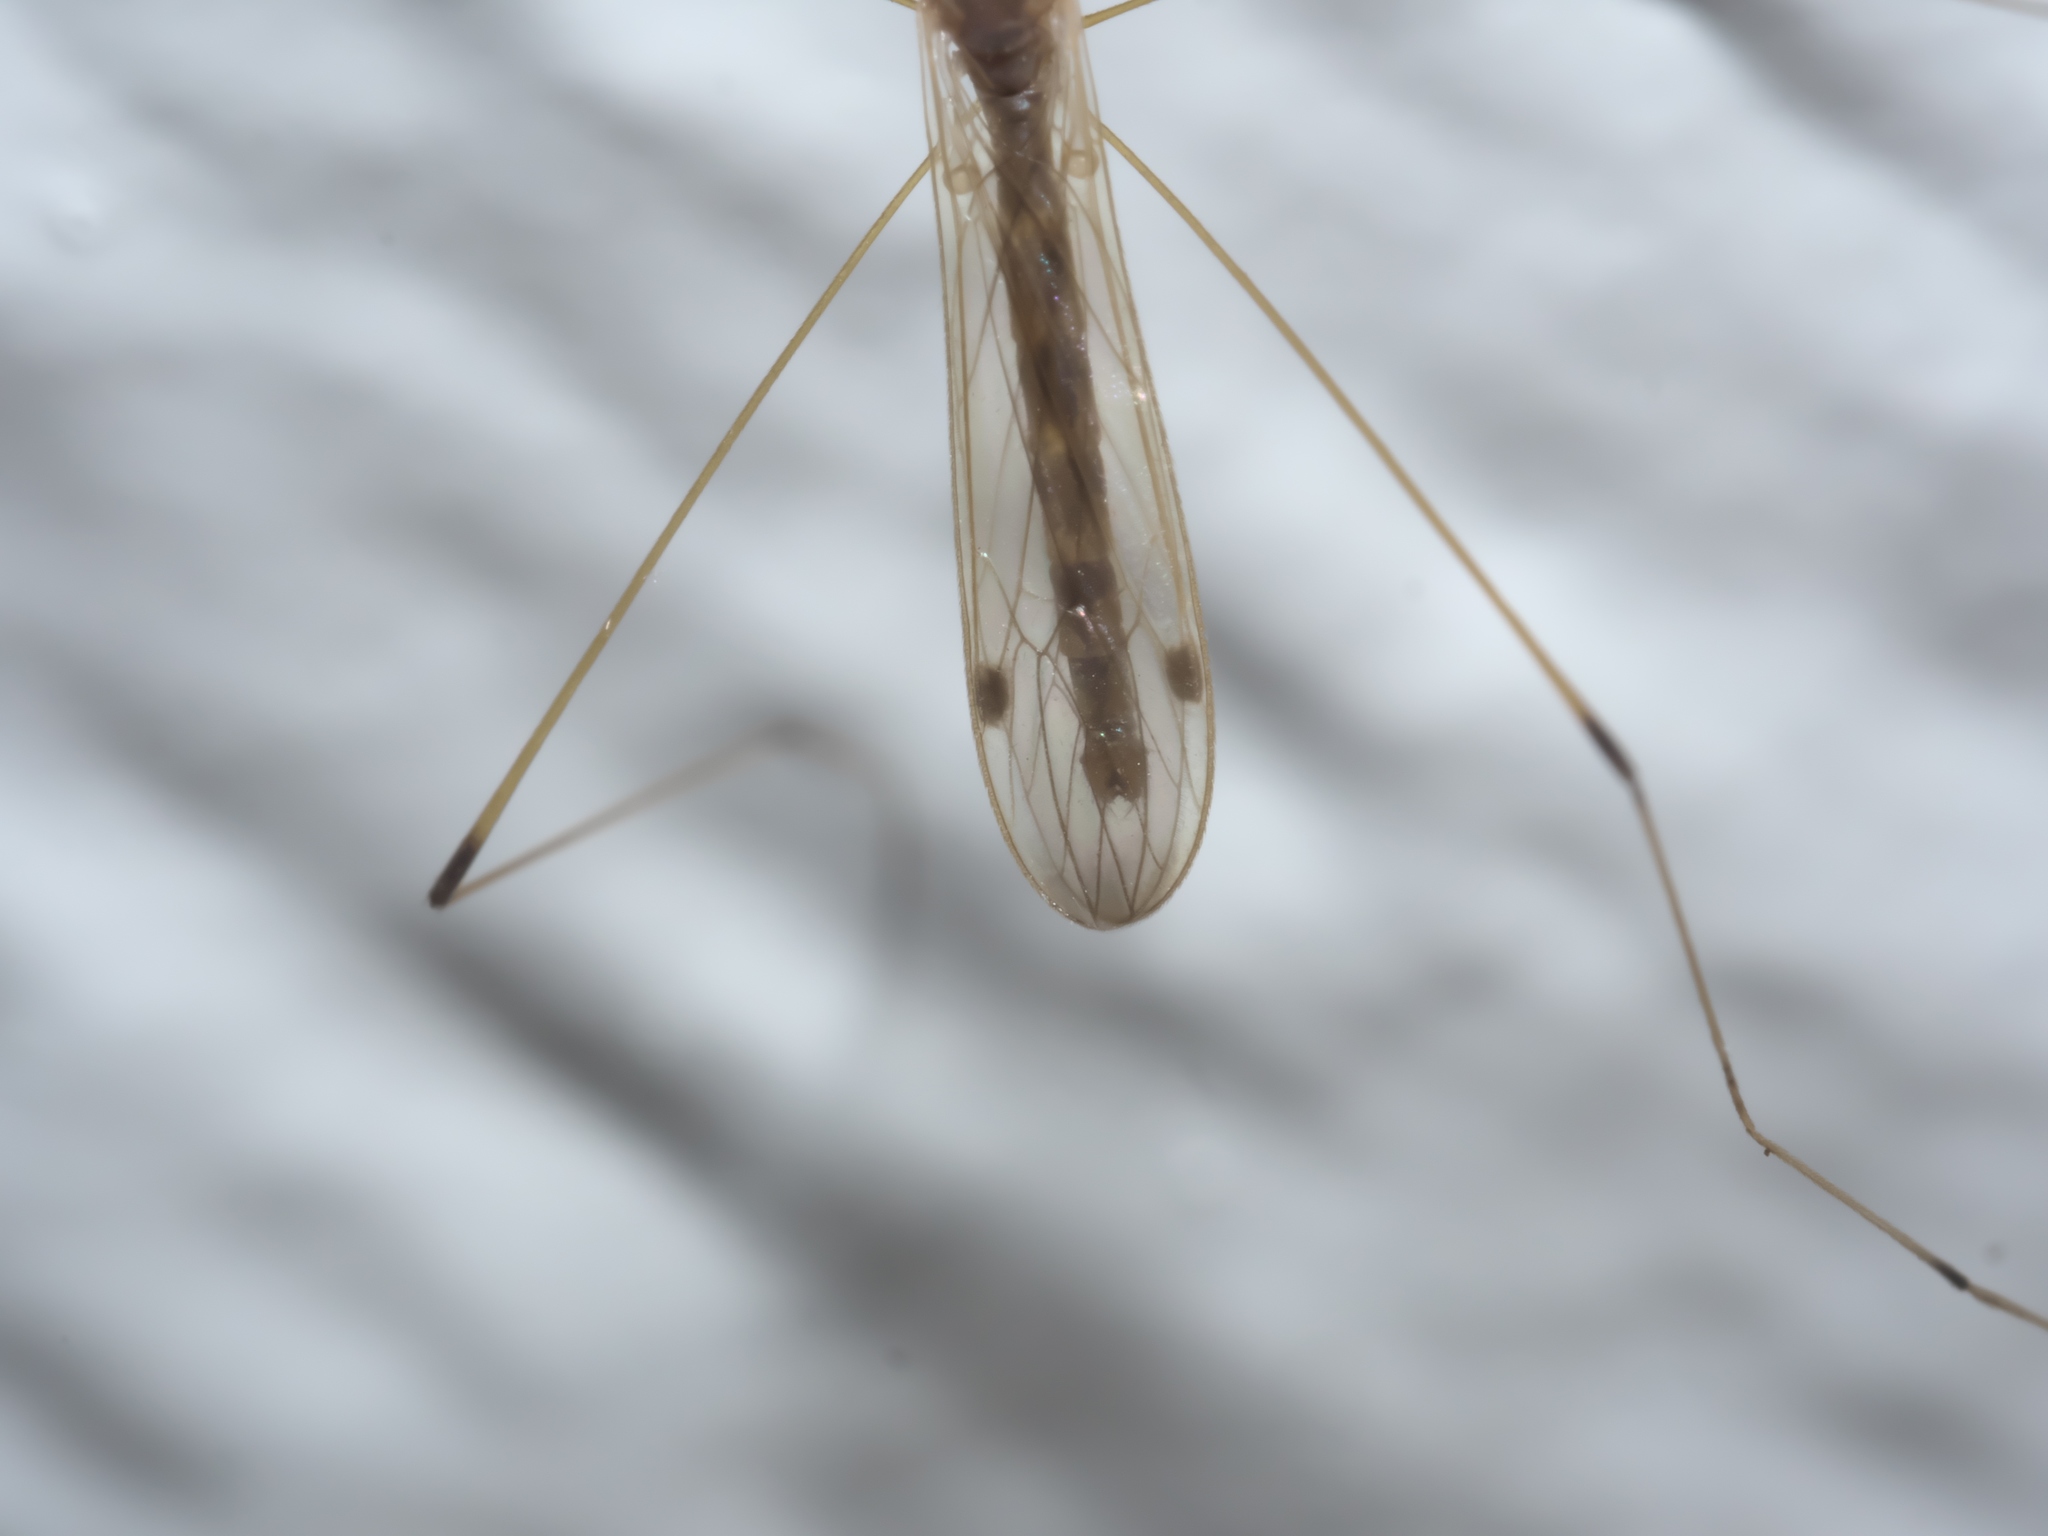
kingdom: Animalia
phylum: Arthropoda
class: Insecta
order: Diptera
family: Limoniidae
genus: Helius
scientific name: Helius flavipes
